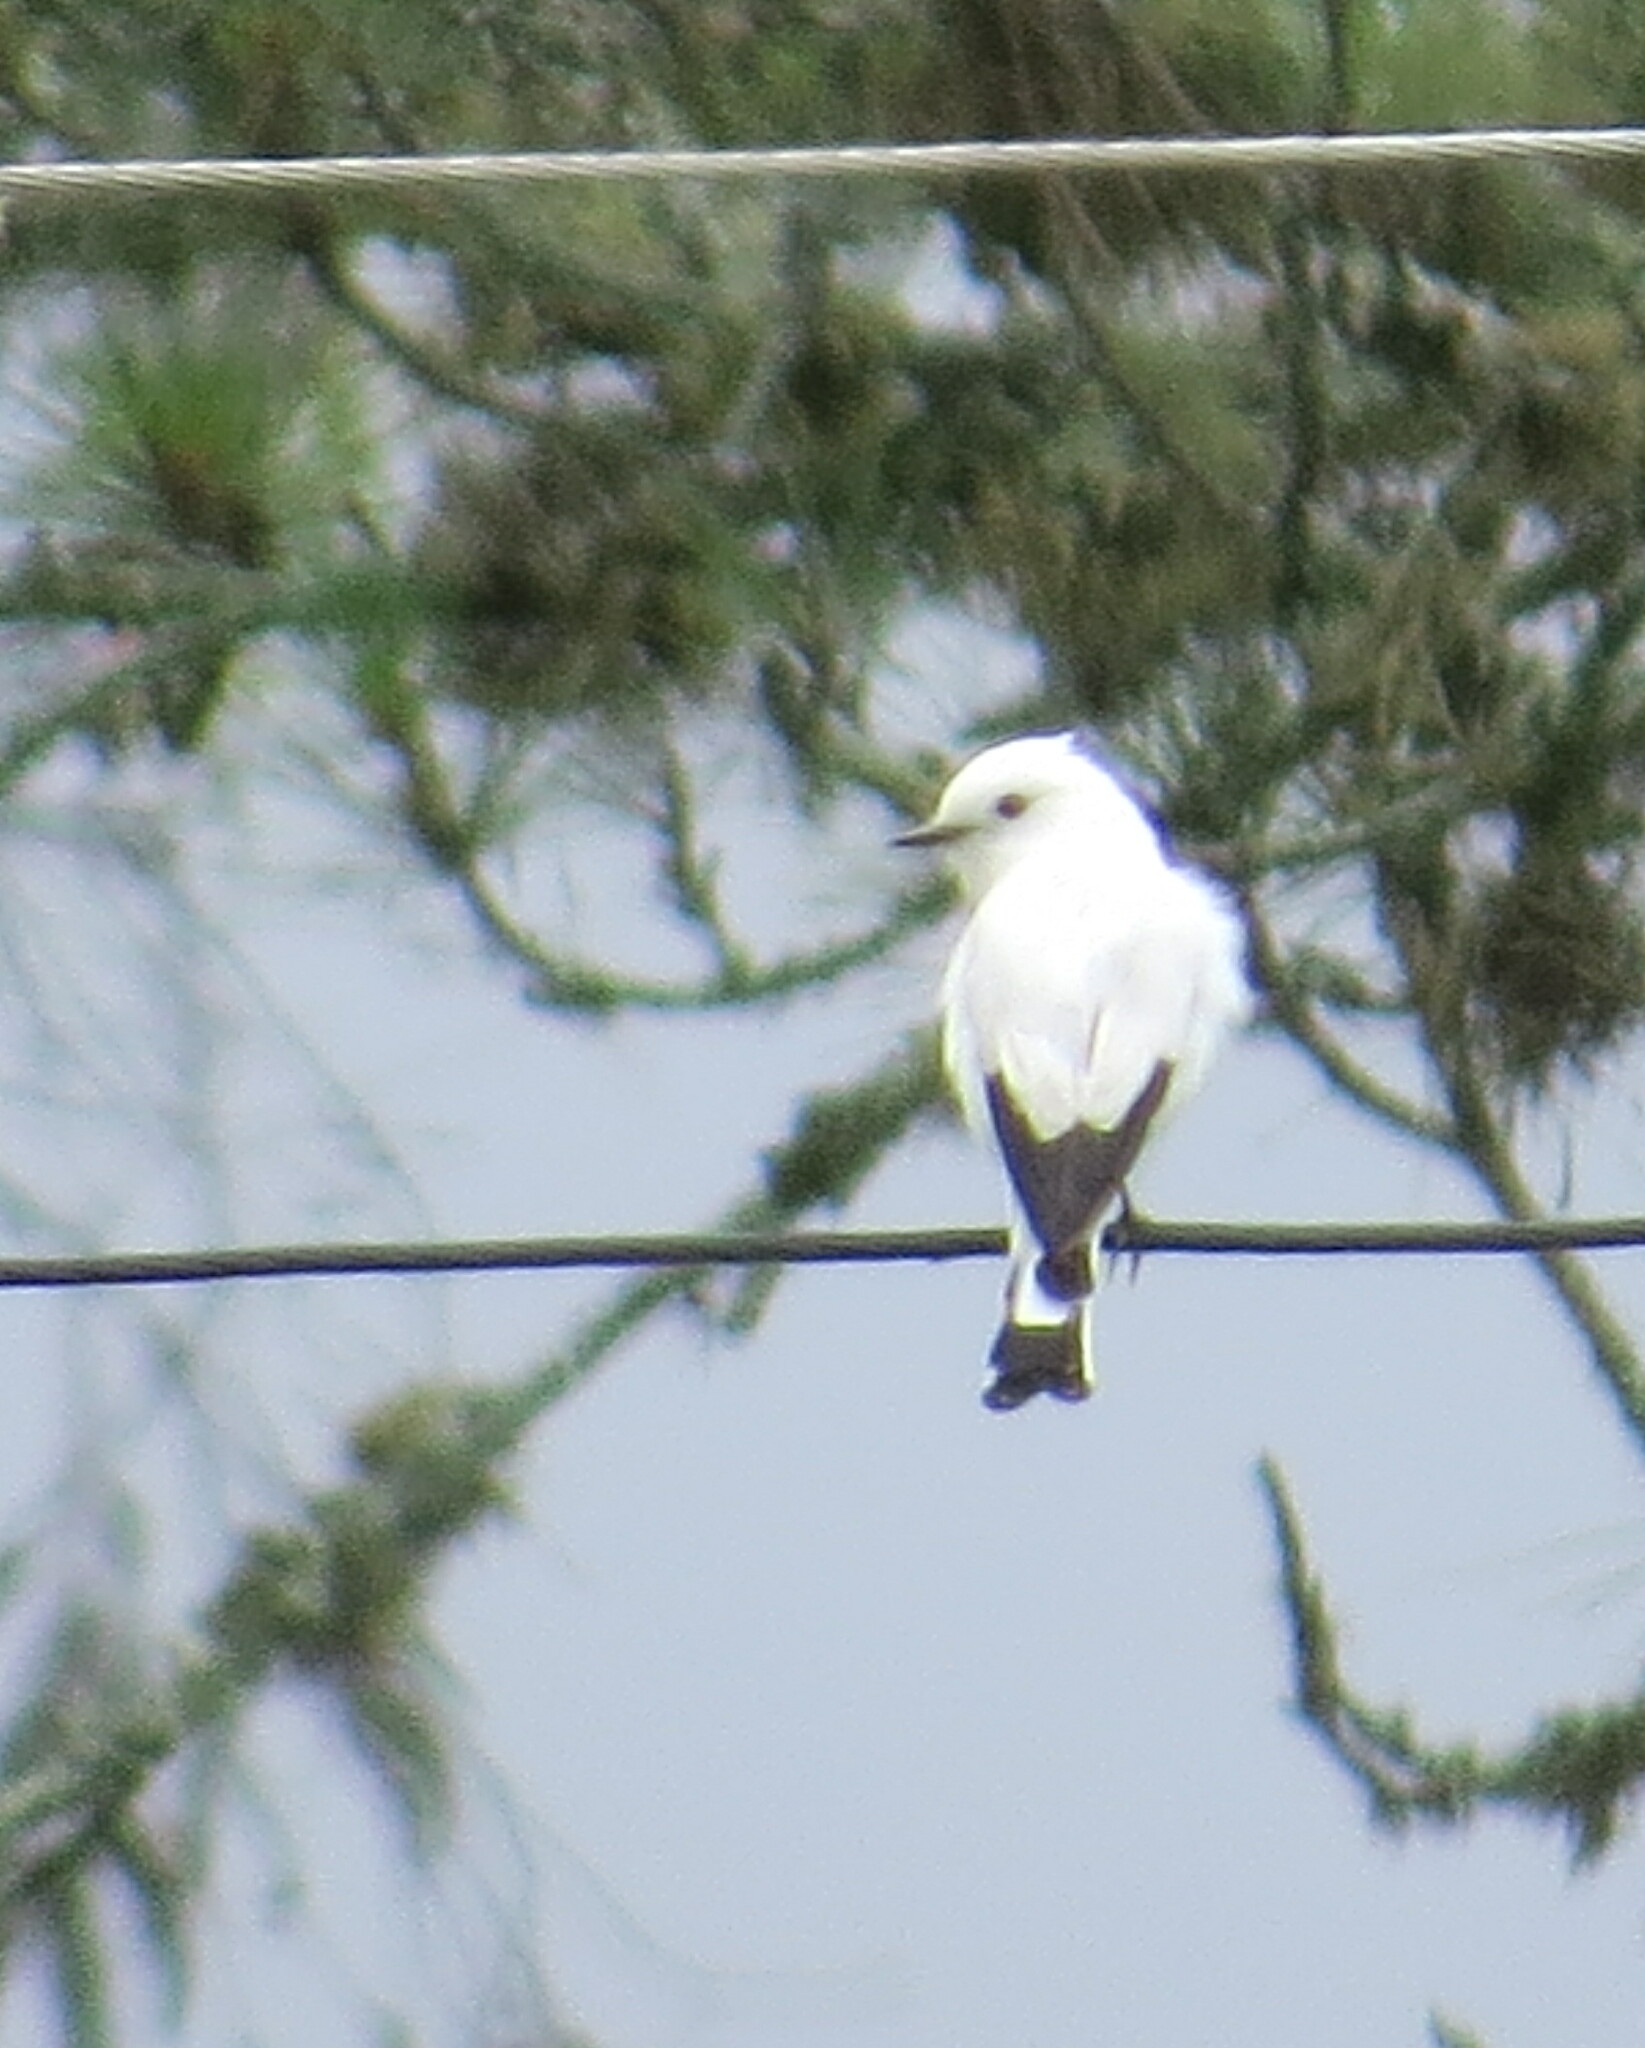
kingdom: Animalia
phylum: Chordata
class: Aves
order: Passeriformes
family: Tyrannidae
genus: Xolmis
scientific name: Xolmis irupero
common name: White monjita
